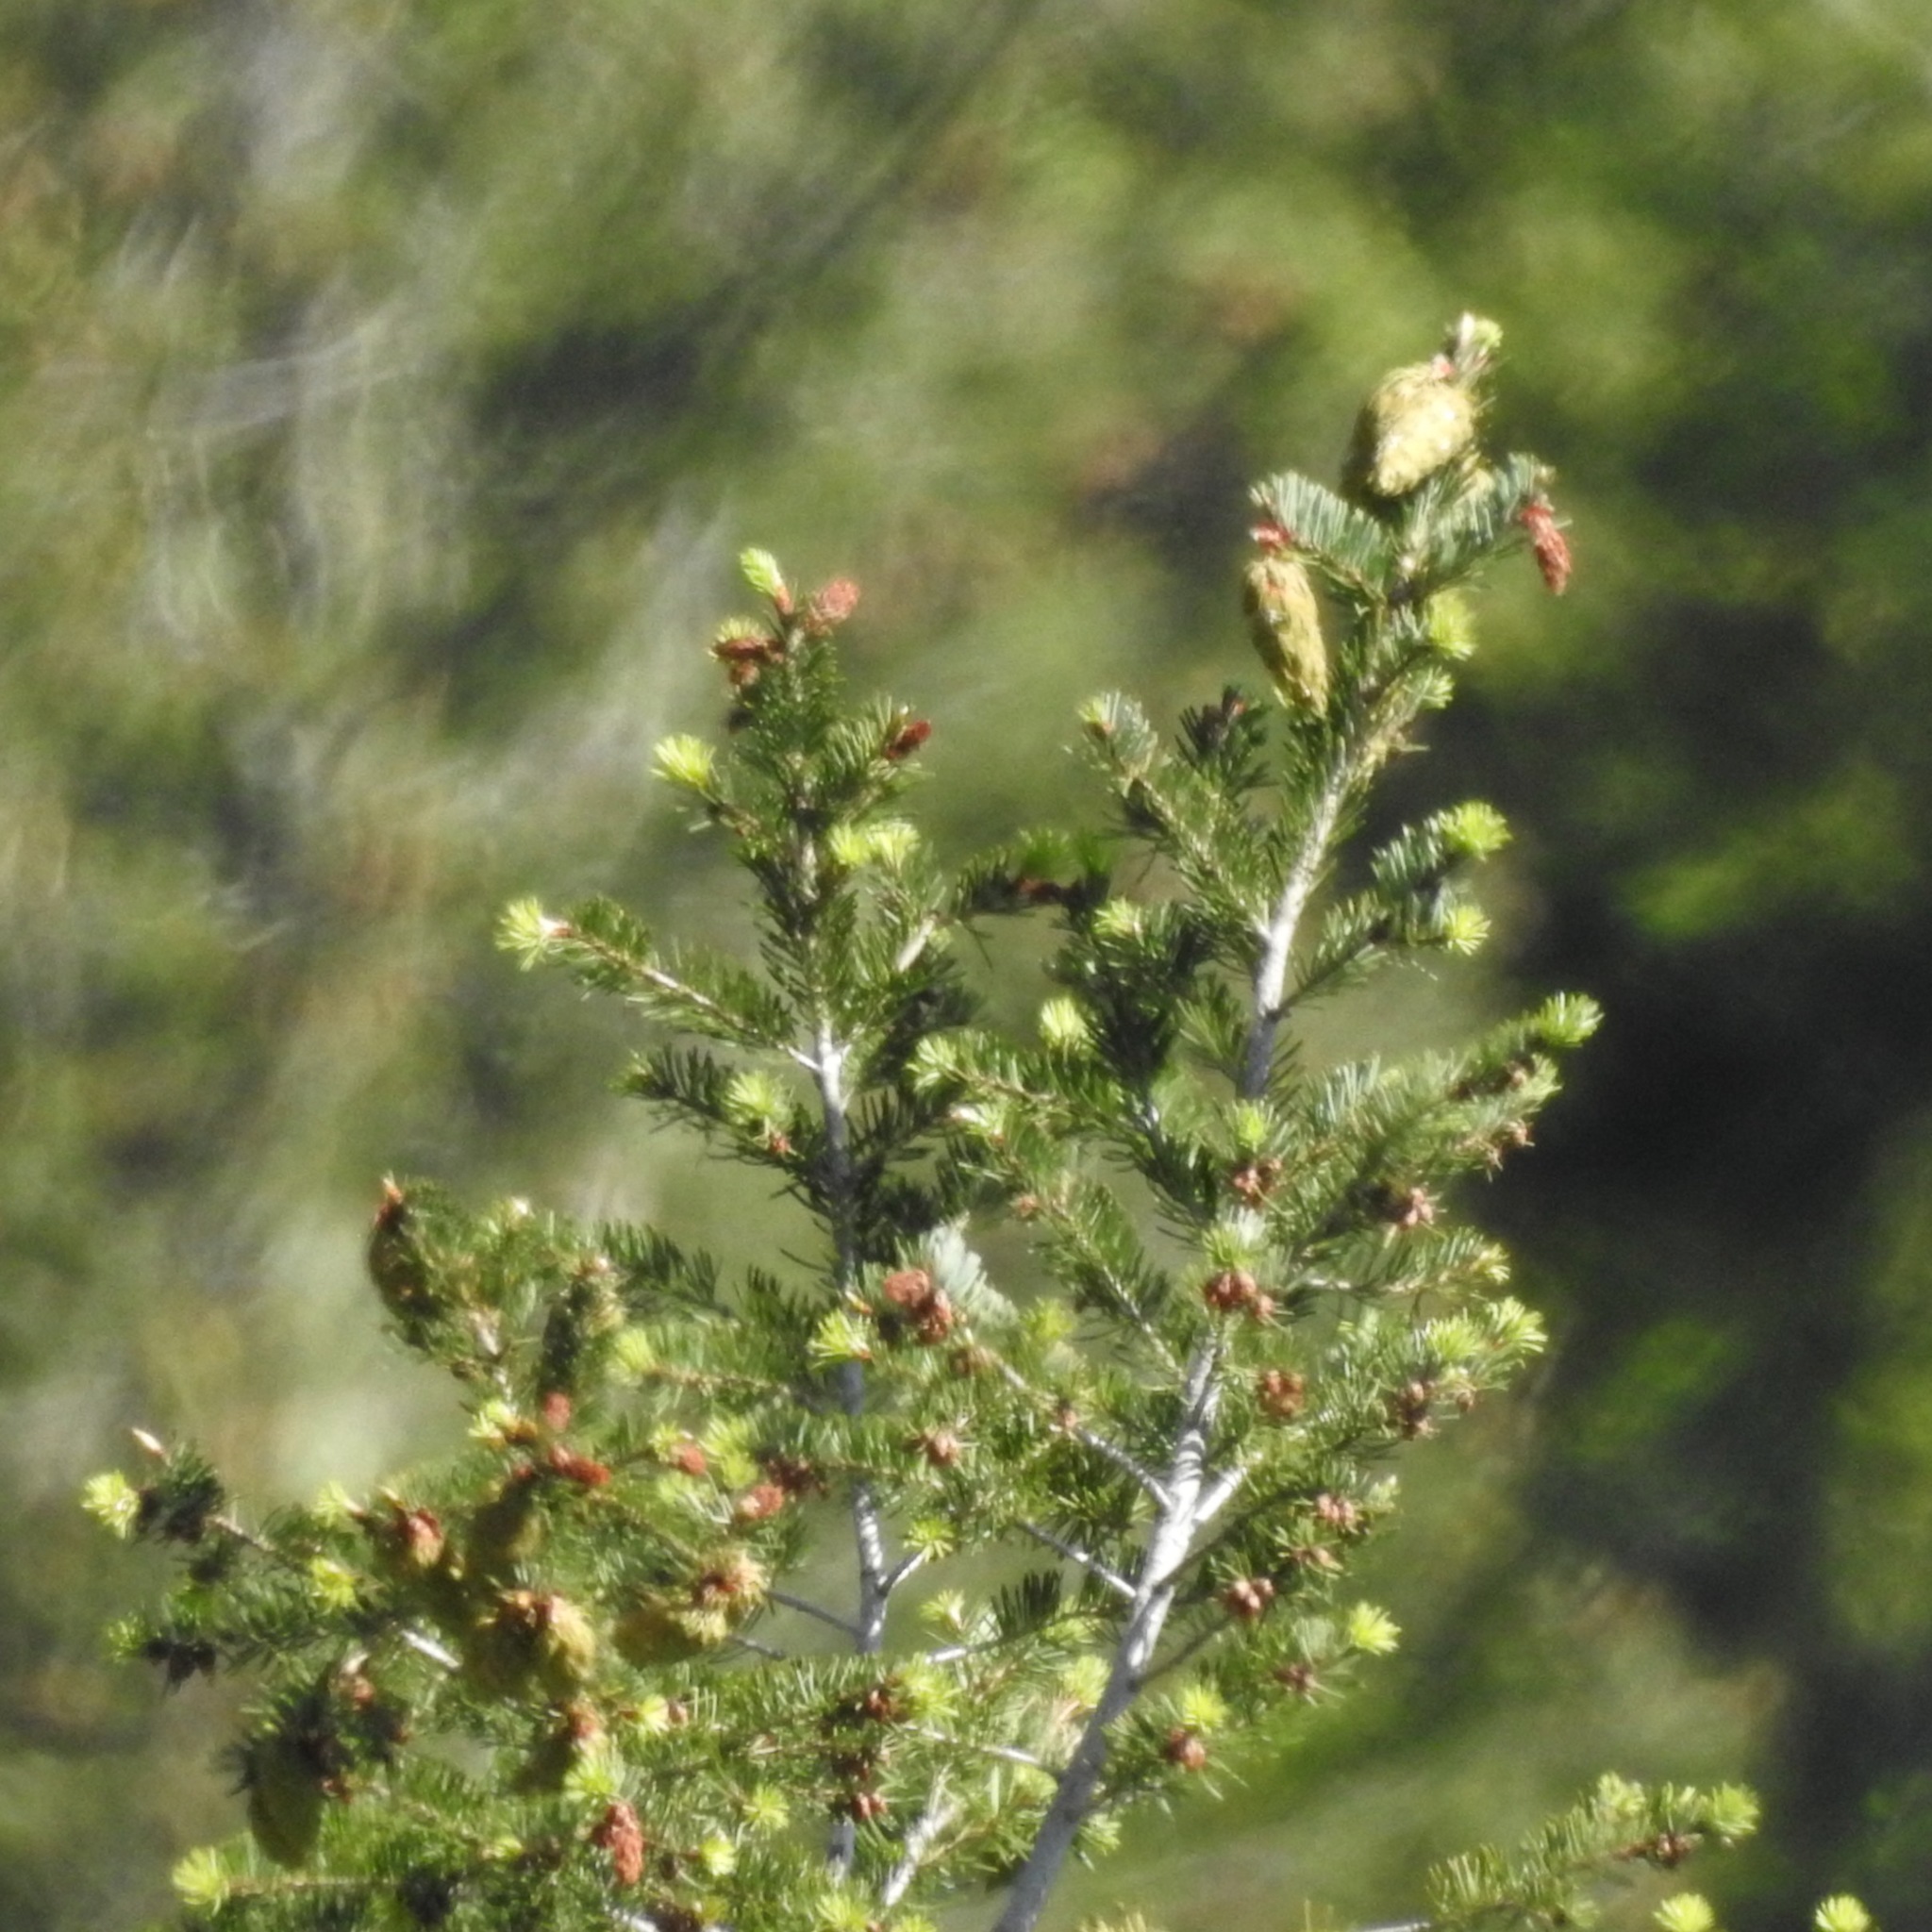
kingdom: Plantae
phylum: Tracheophyta
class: Pinopsida
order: Pinales
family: Pinaceae
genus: Pseudotsuga
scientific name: Pseudotsuga menziesii
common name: Douglas fir
